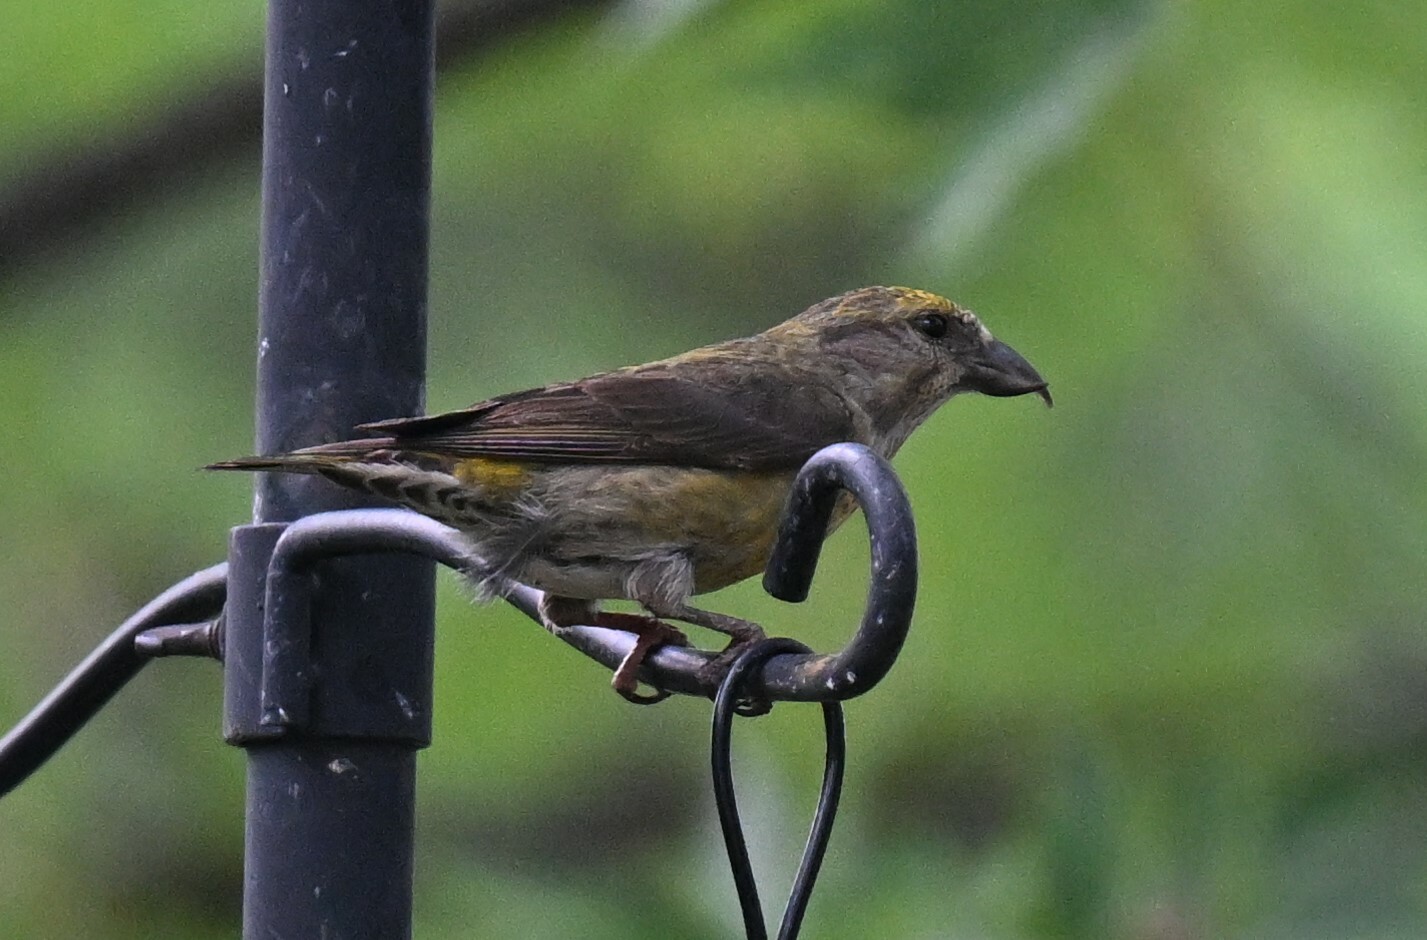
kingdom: Animalia
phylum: Chordata
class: Aves
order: Passeriformes
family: Fringillidae
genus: Loxia
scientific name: Loxia curvirostra
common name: Red crossbill
